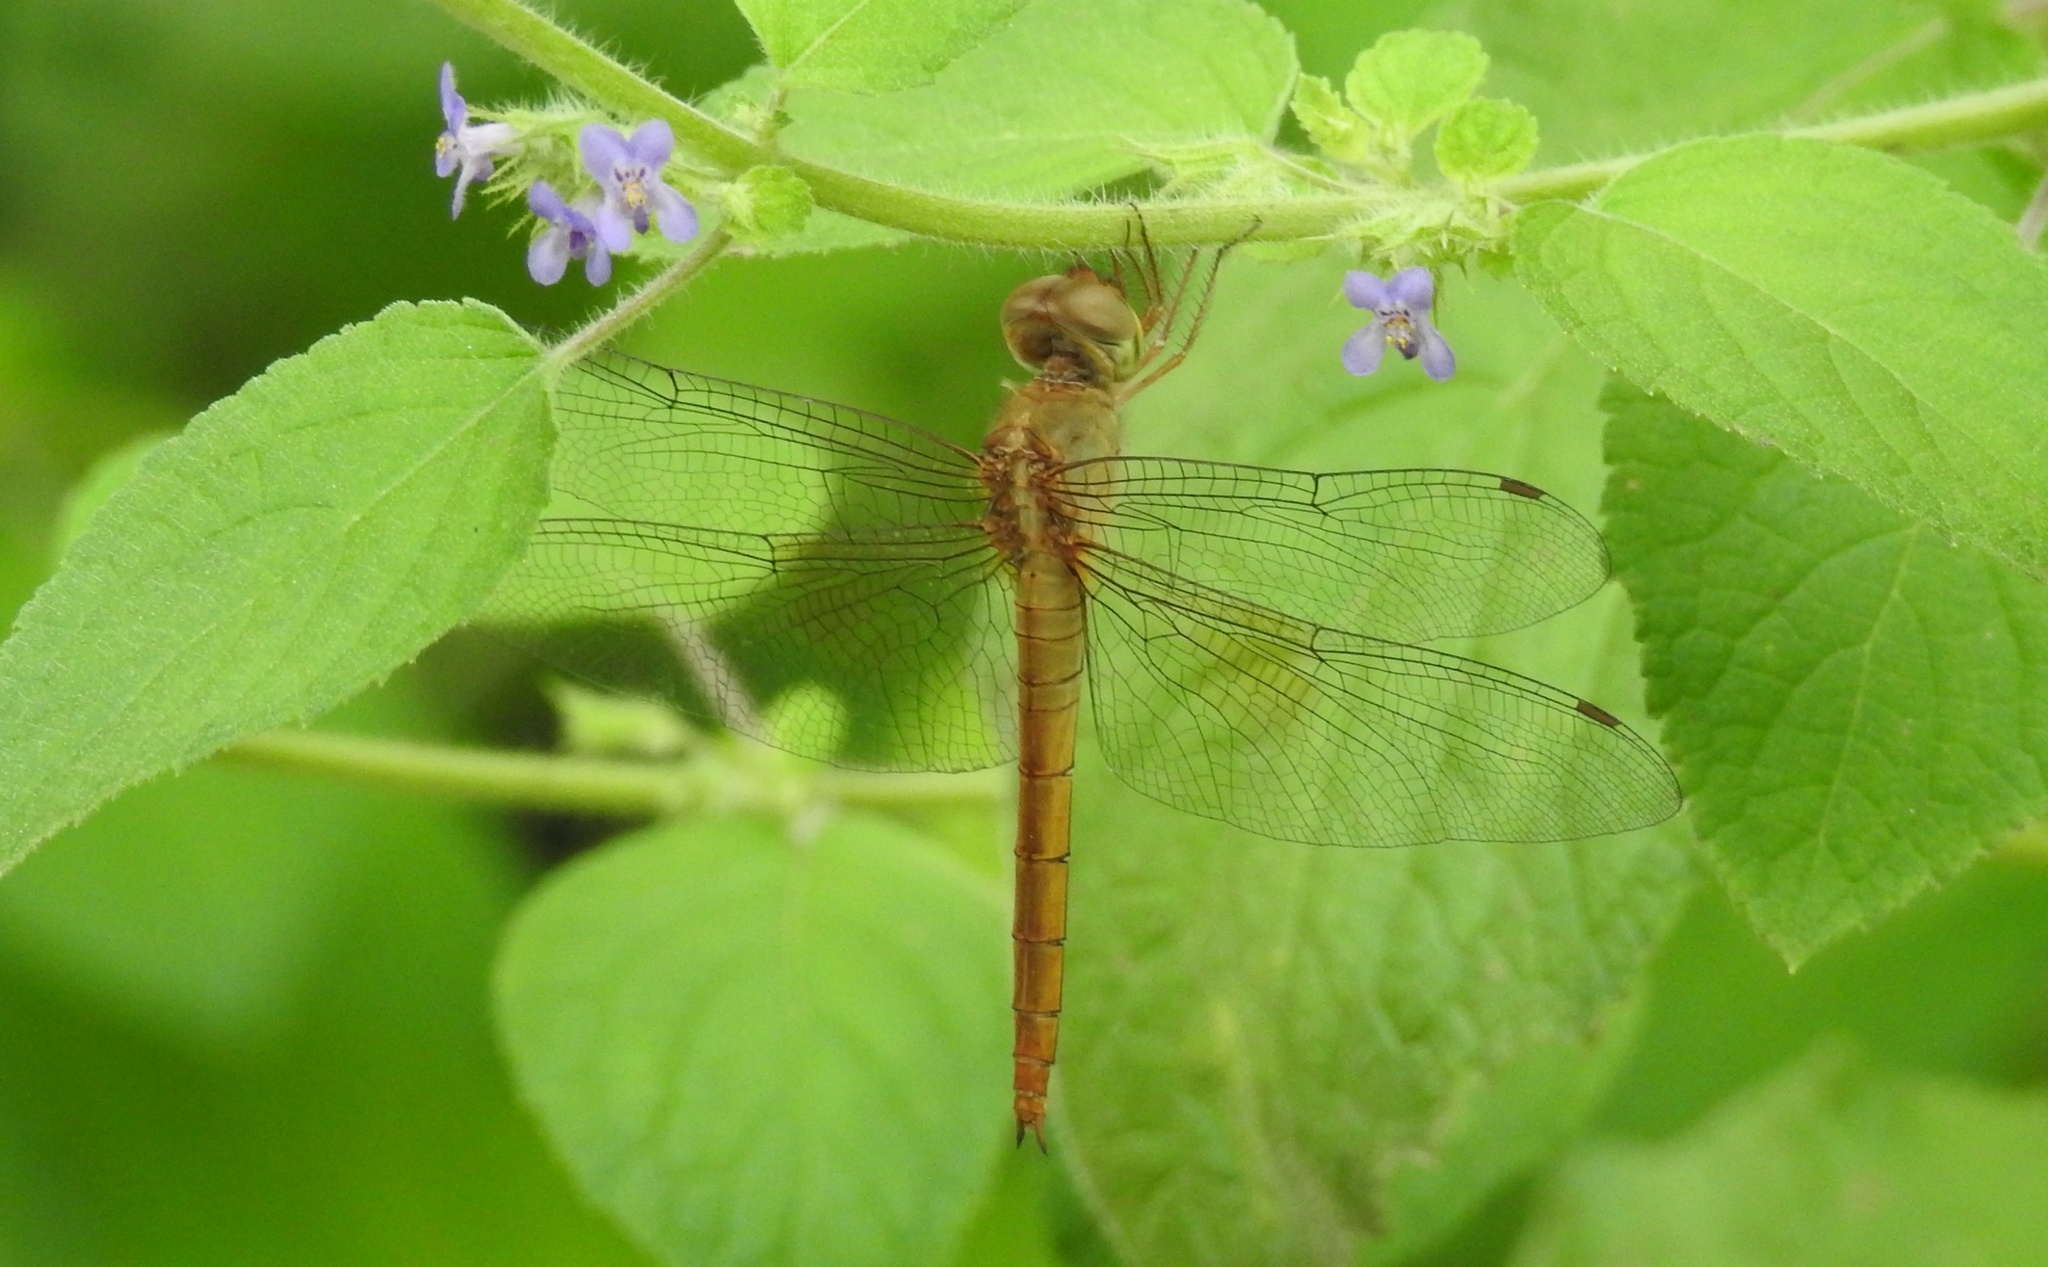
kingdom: Animalia
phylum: Arthropoda
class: Insecta
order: Odonata
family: Libellulidae
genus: Tholymis
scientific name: Tholymis tillarga
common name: Coral-tailed cloud wing
